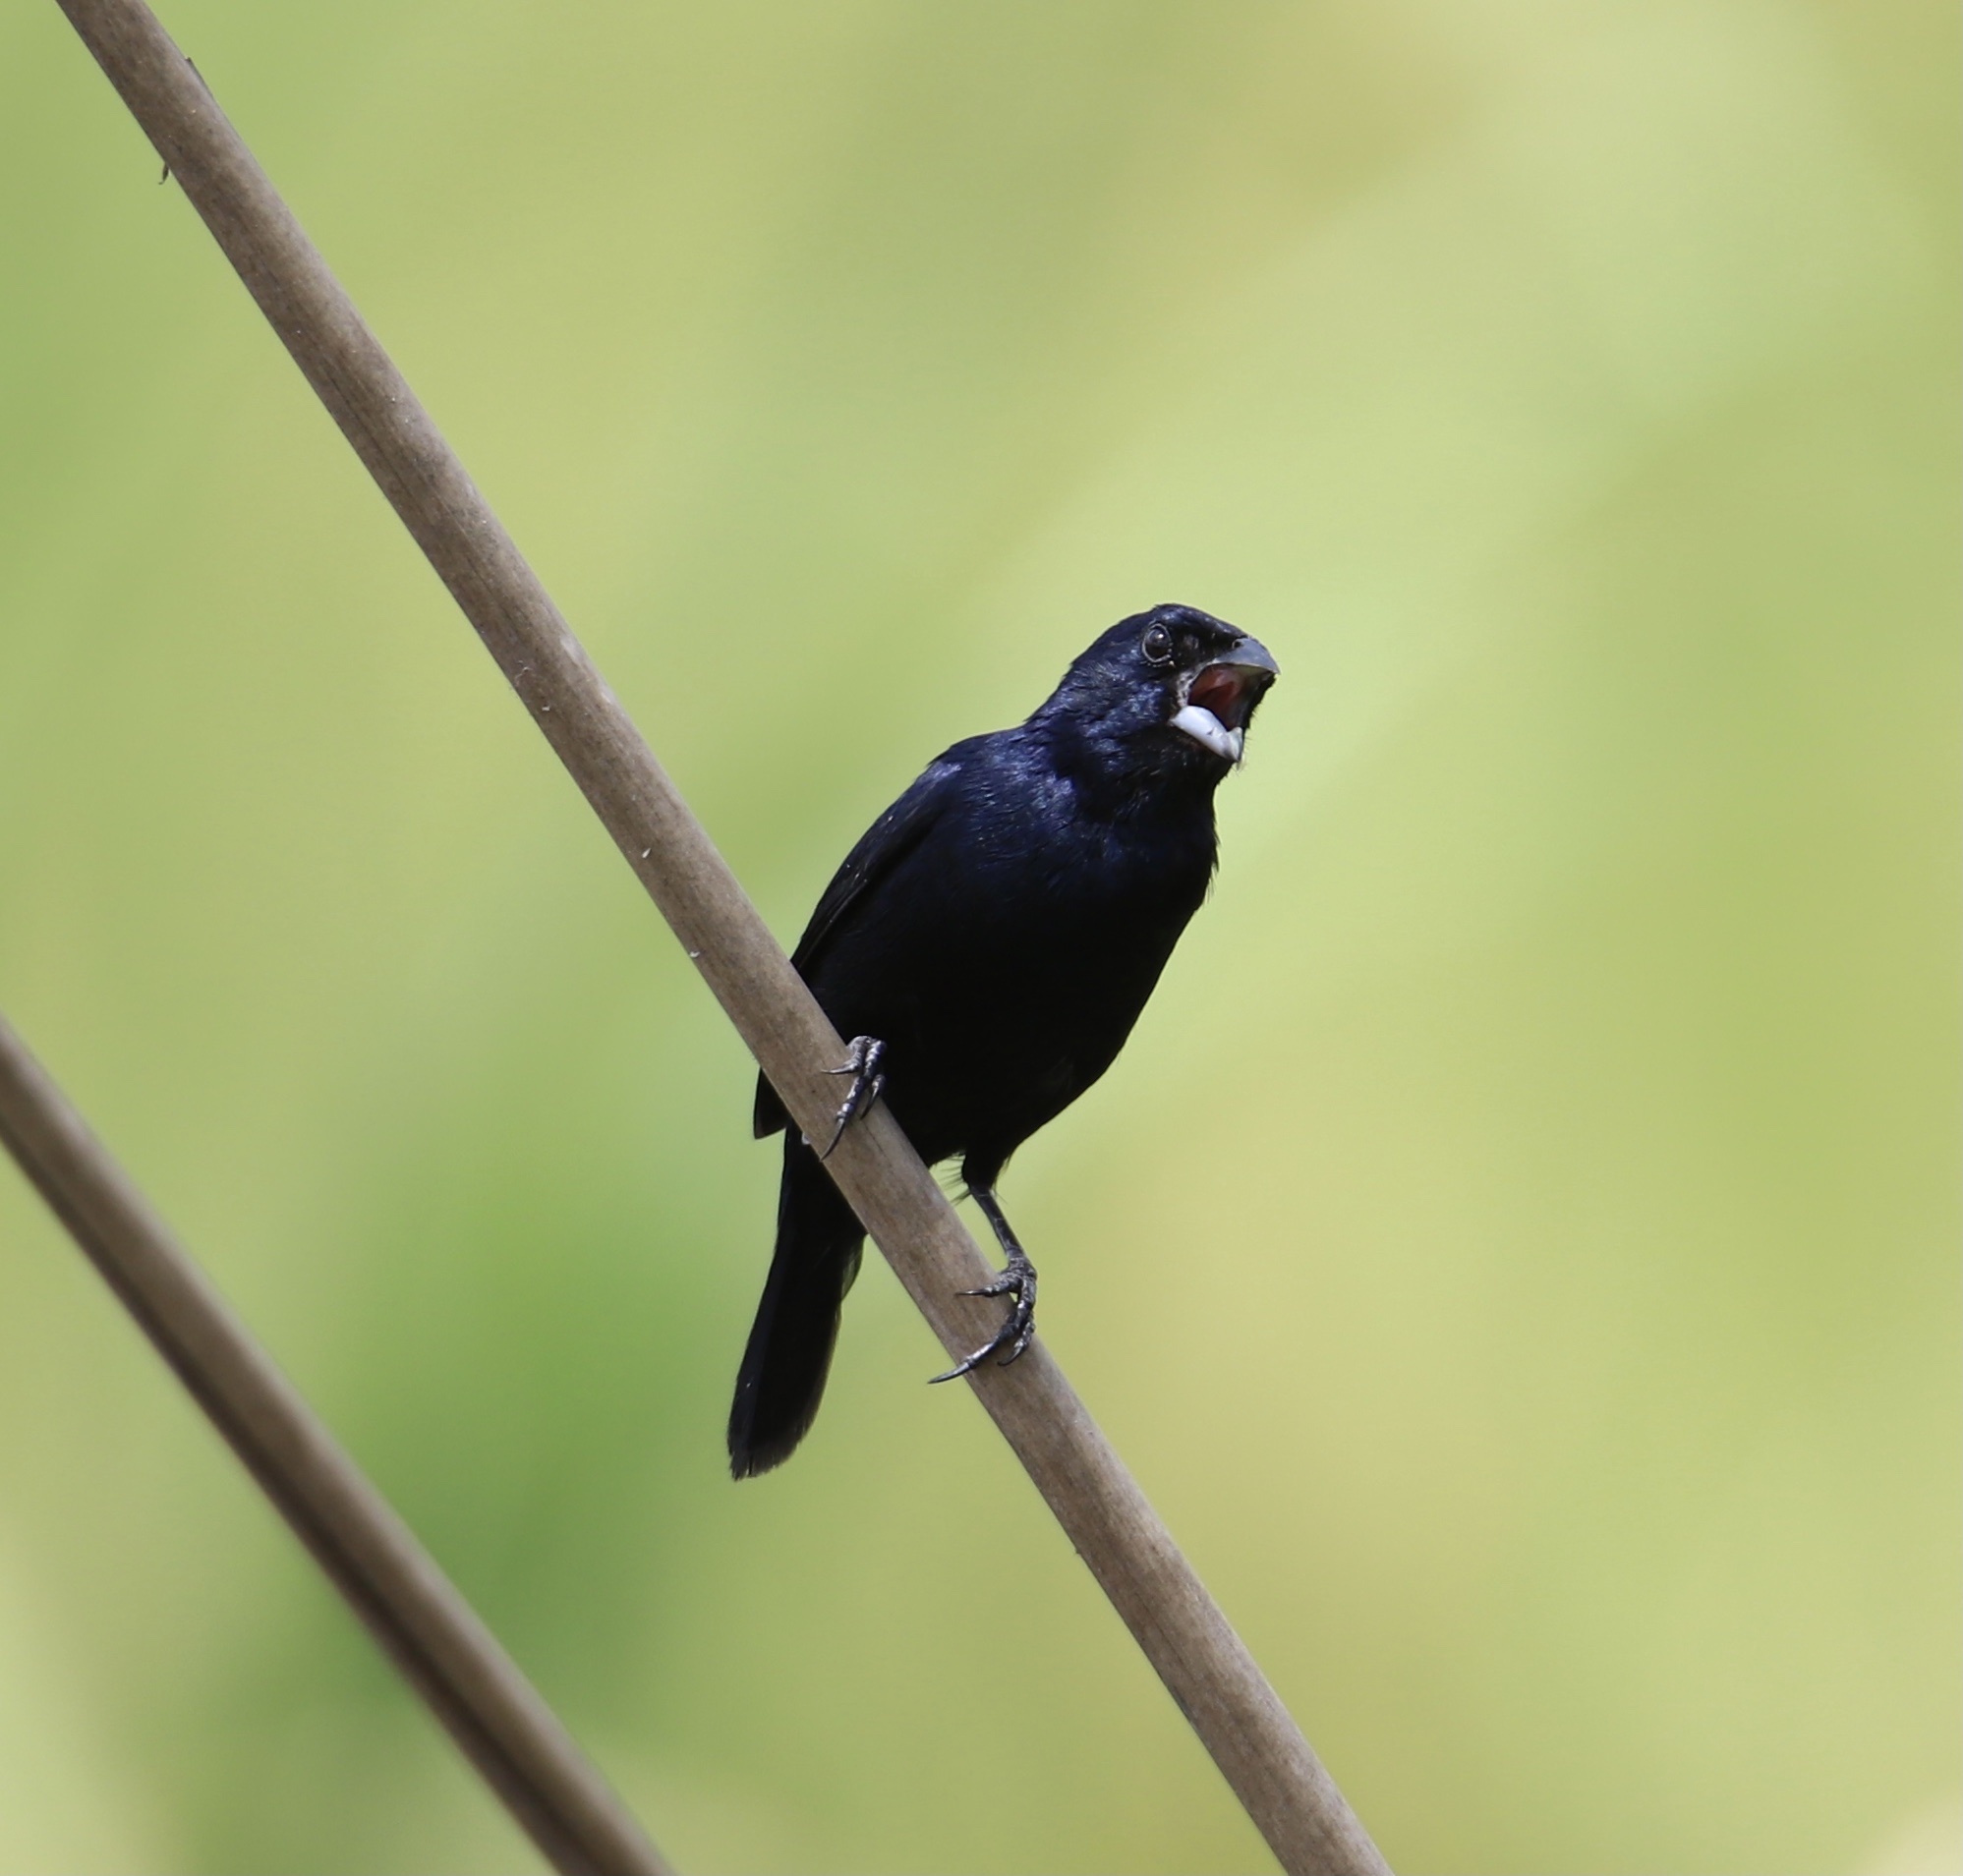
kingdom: Animalia
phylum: Chordata
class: Aves
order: Passeriformes
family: Thraupidae
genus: Volatinia
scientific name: Volatinia jacarina
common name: Blue-black grassquit
